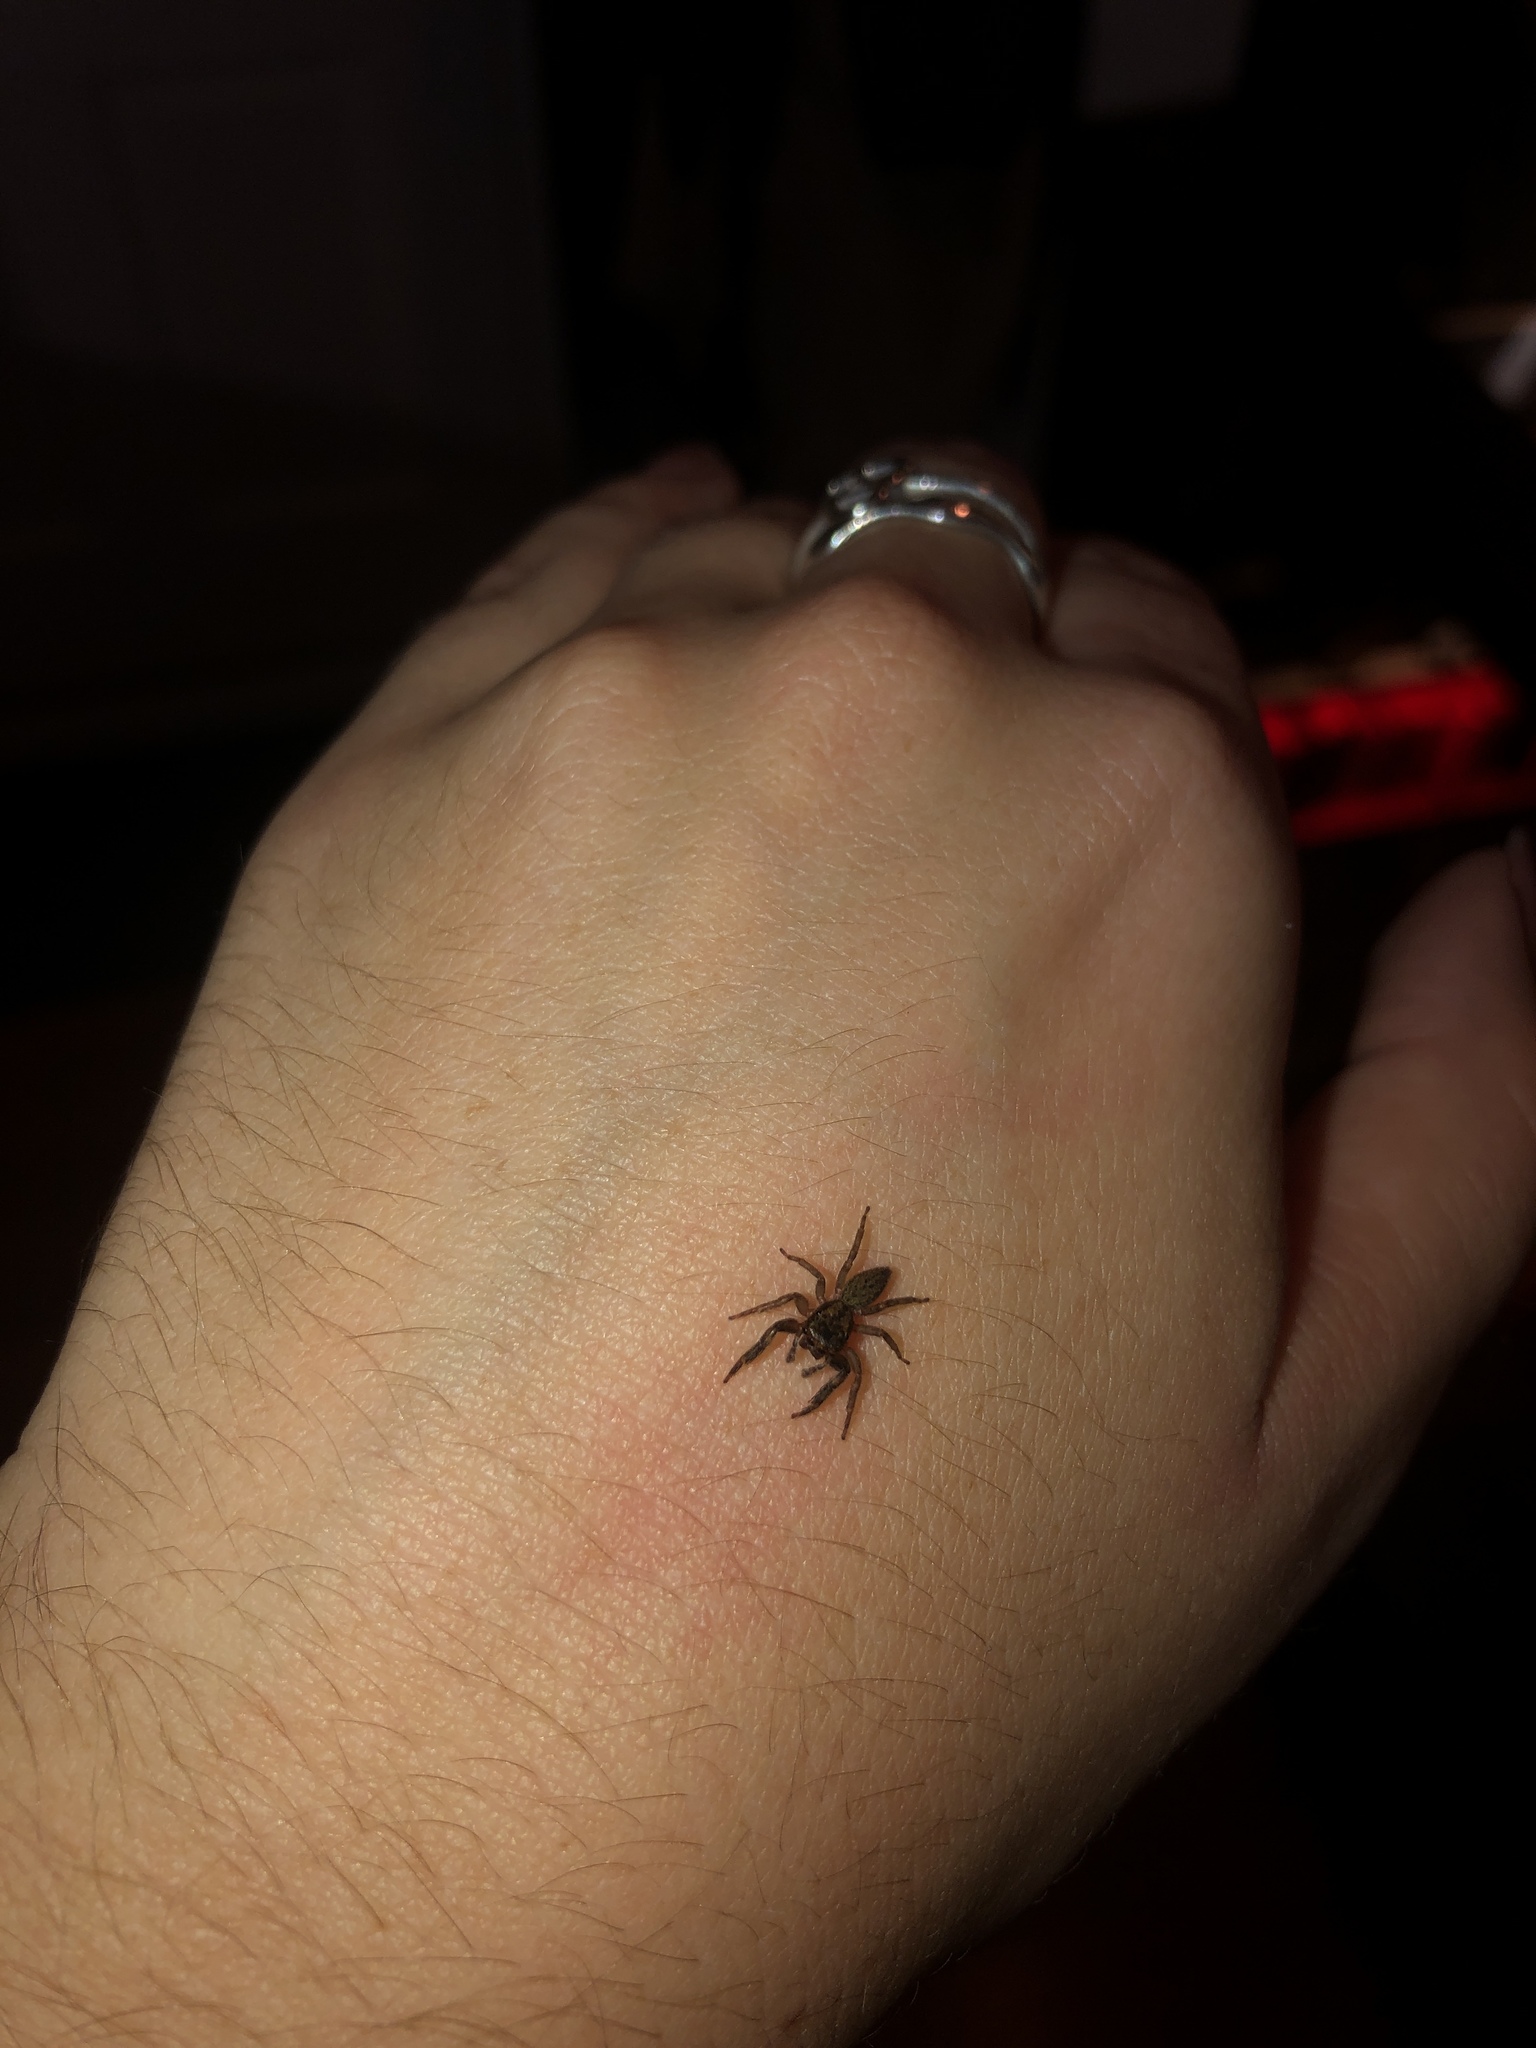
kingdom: Animalia
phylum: Arthropoda
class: Arachnida
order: Araneae
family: Salticidae
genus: Trite
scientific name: Trite auricoma
